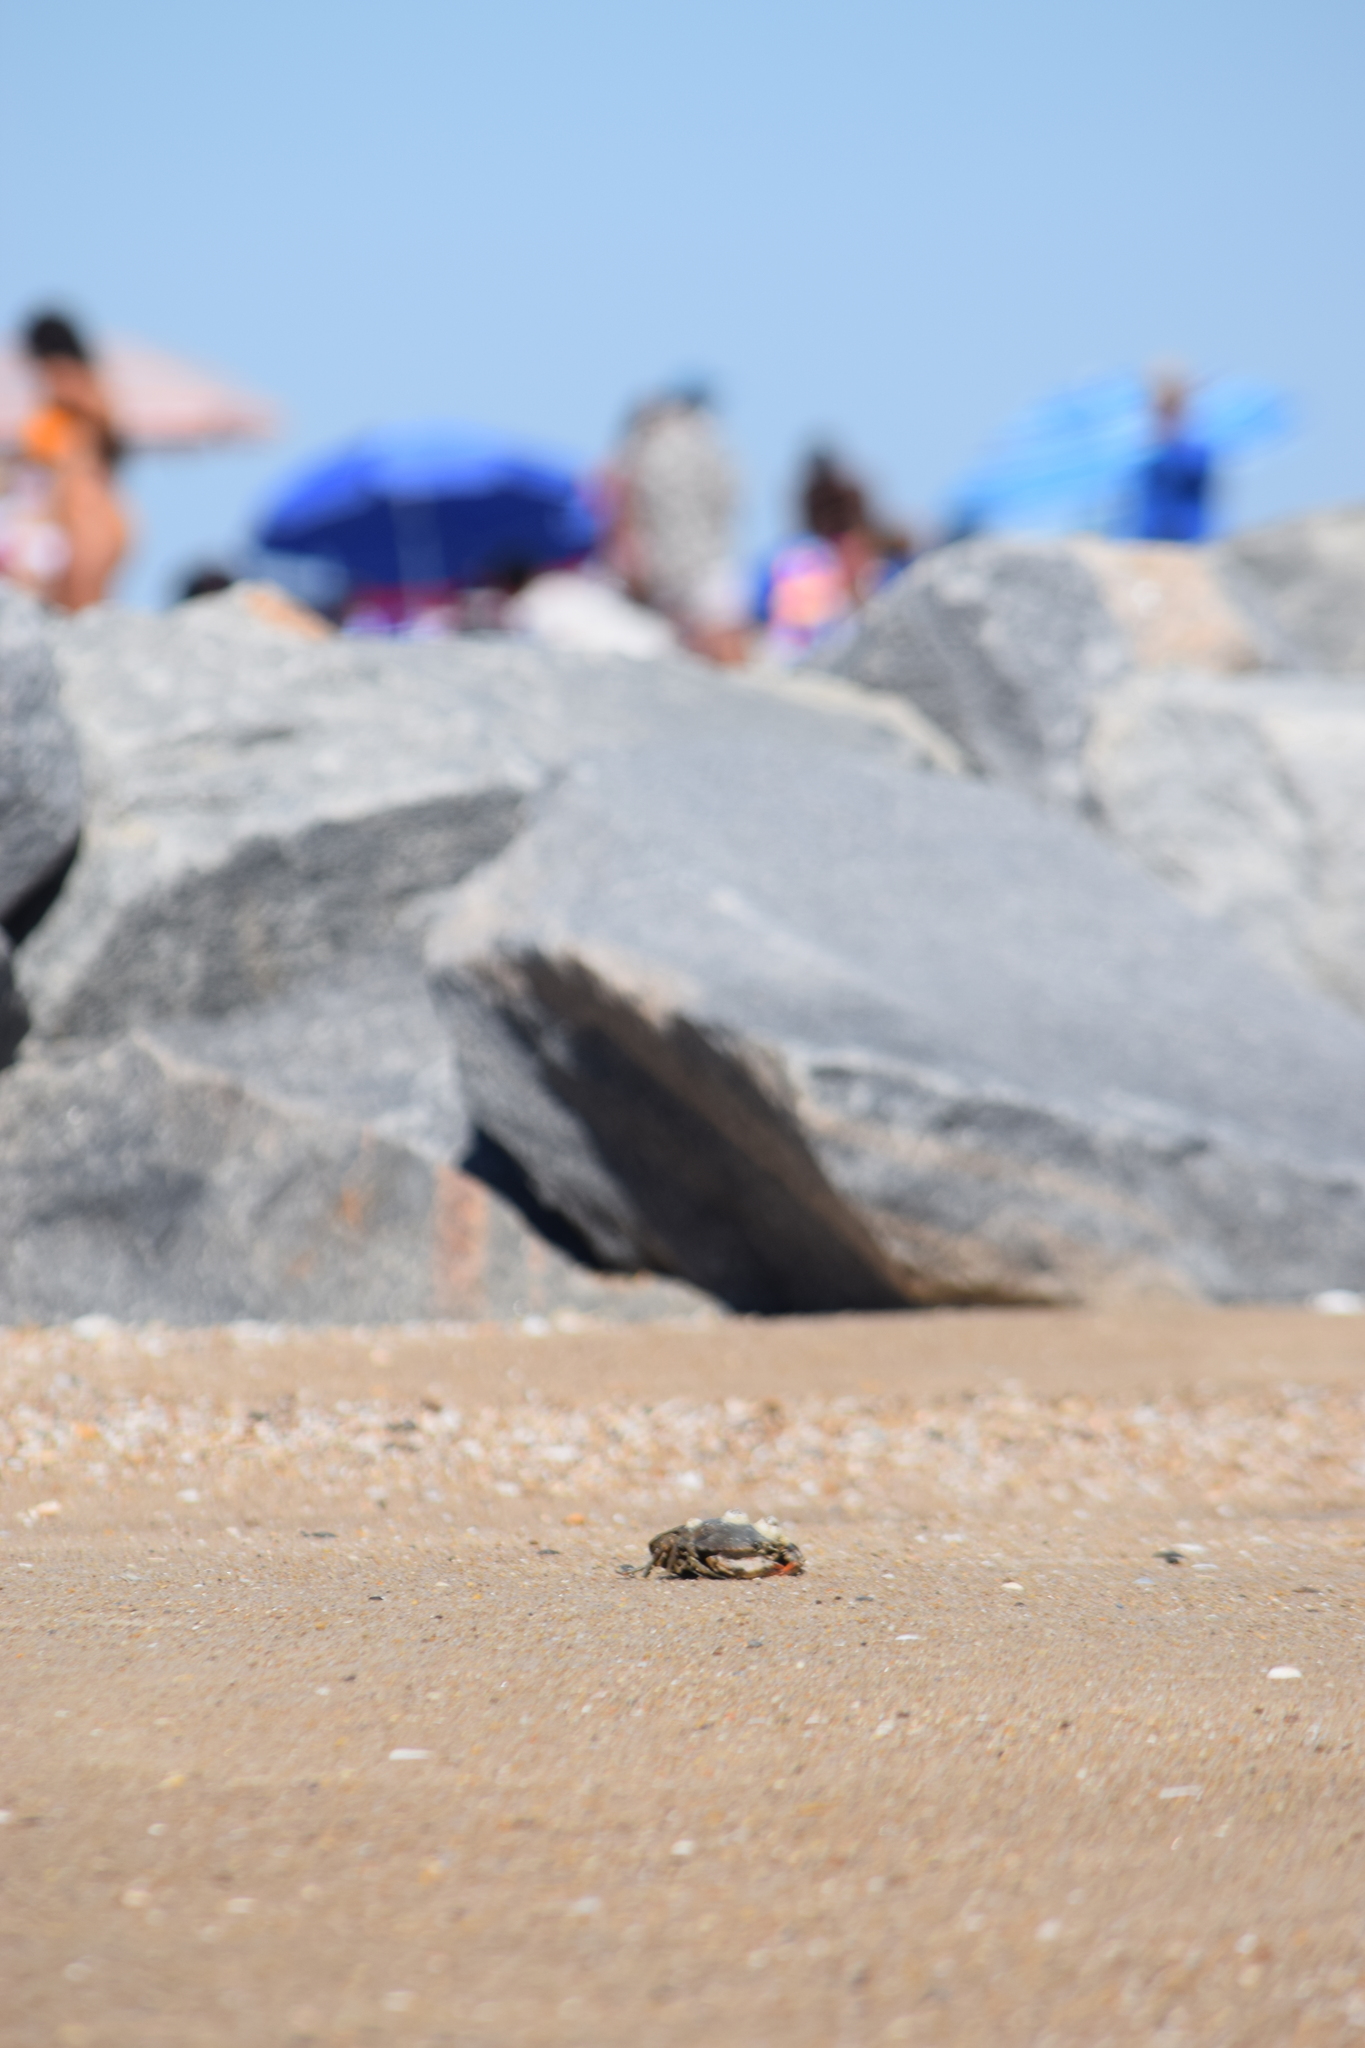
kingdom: Animalia
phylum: Arthropoda
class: Malacostraca
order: Decapoda
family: Portunidae
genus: Callinectes
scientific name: Callinectes sapidus
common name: Blue crab
